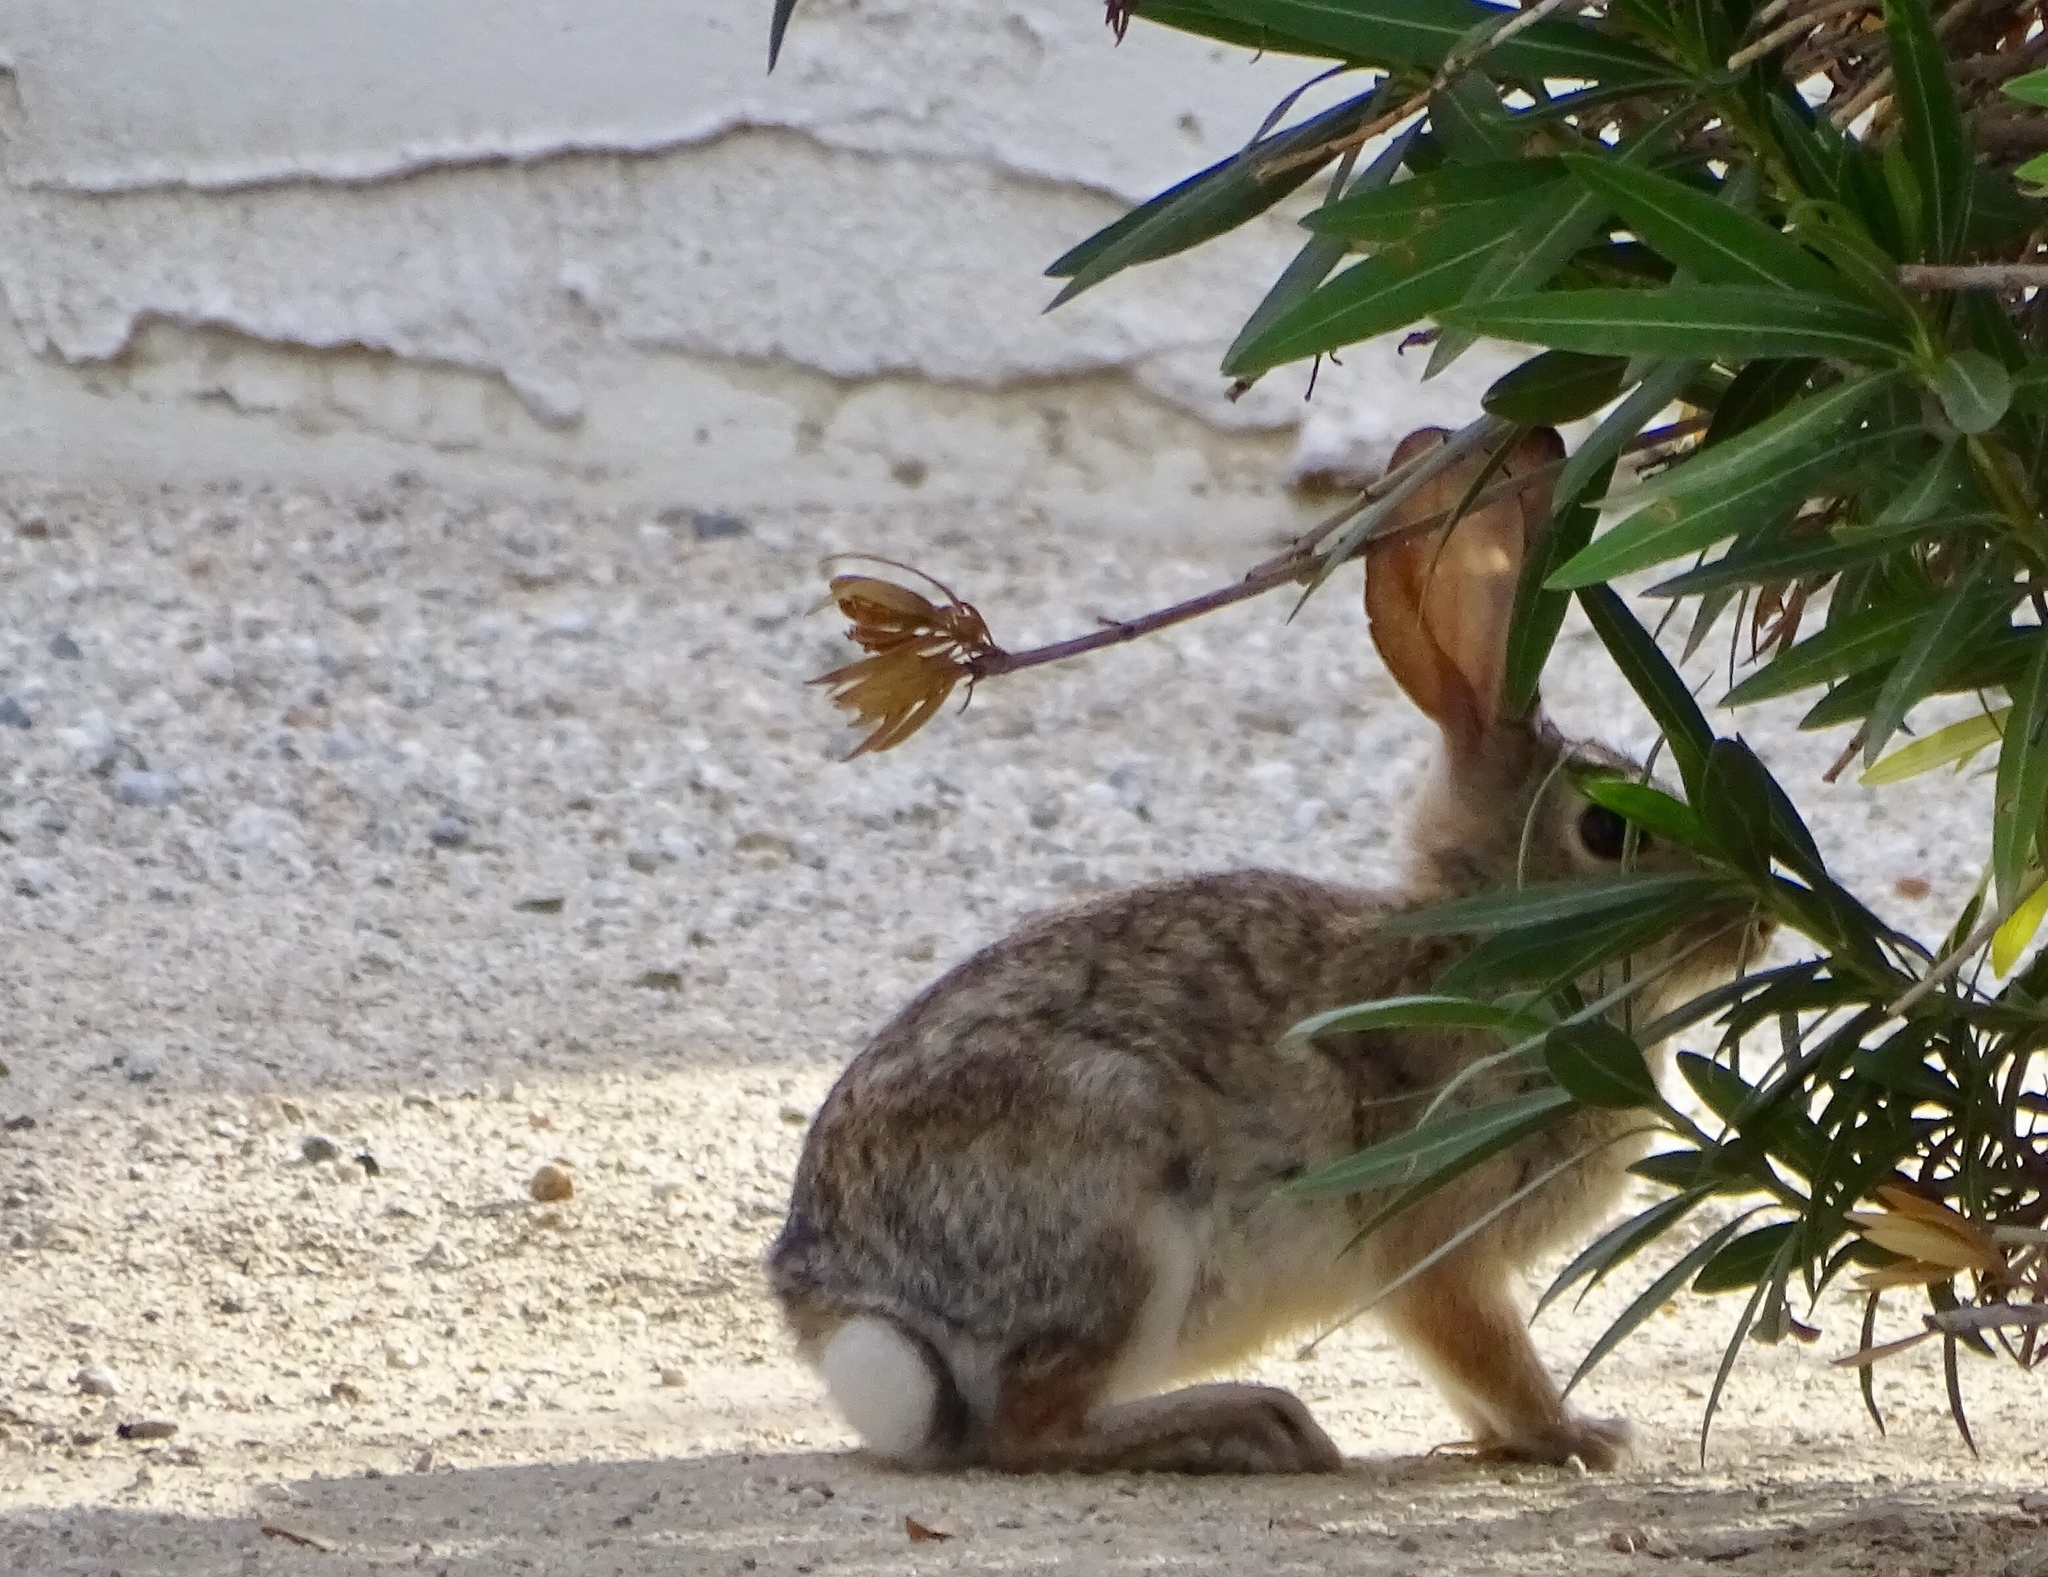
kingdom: Animalia
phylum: Chordata
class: Mammalia
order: Lagomorpha
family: Leporidae
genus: Sylvilagus
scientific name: Sylvilagus audubonii
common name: Desert cottontail
